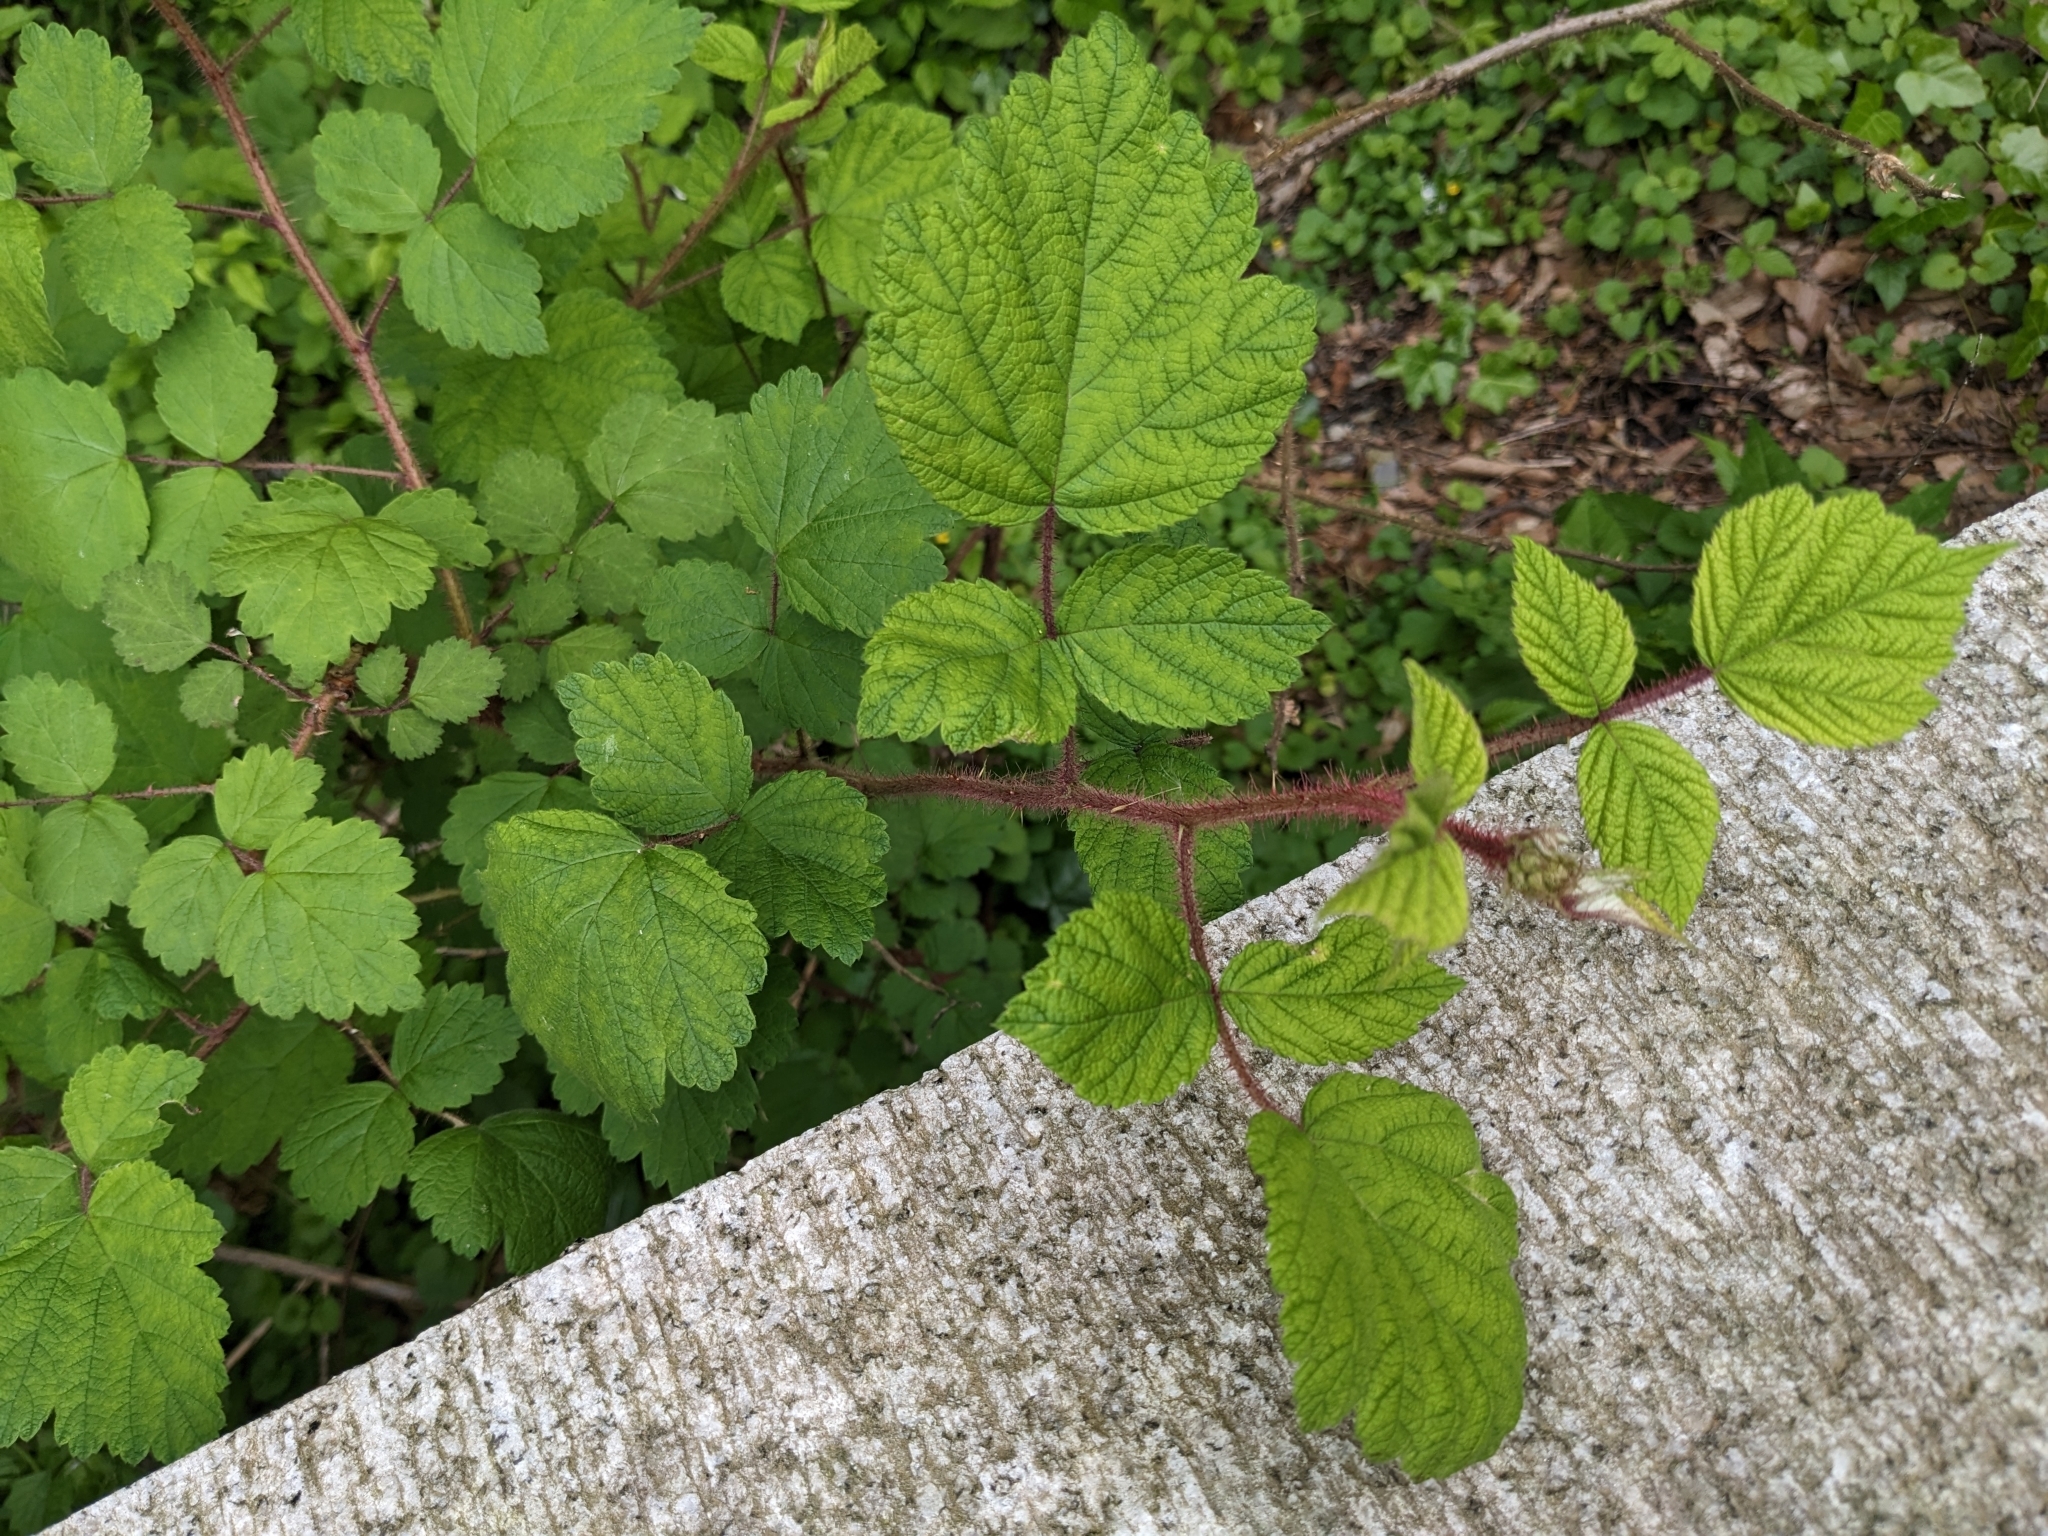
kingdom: Plantae
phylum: Tracheophyta
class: Magnoliopsida
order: Rosales
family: Rosaceae
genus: Rubus
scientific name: Rubus phoenicolasius
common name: Japanese wineberry
